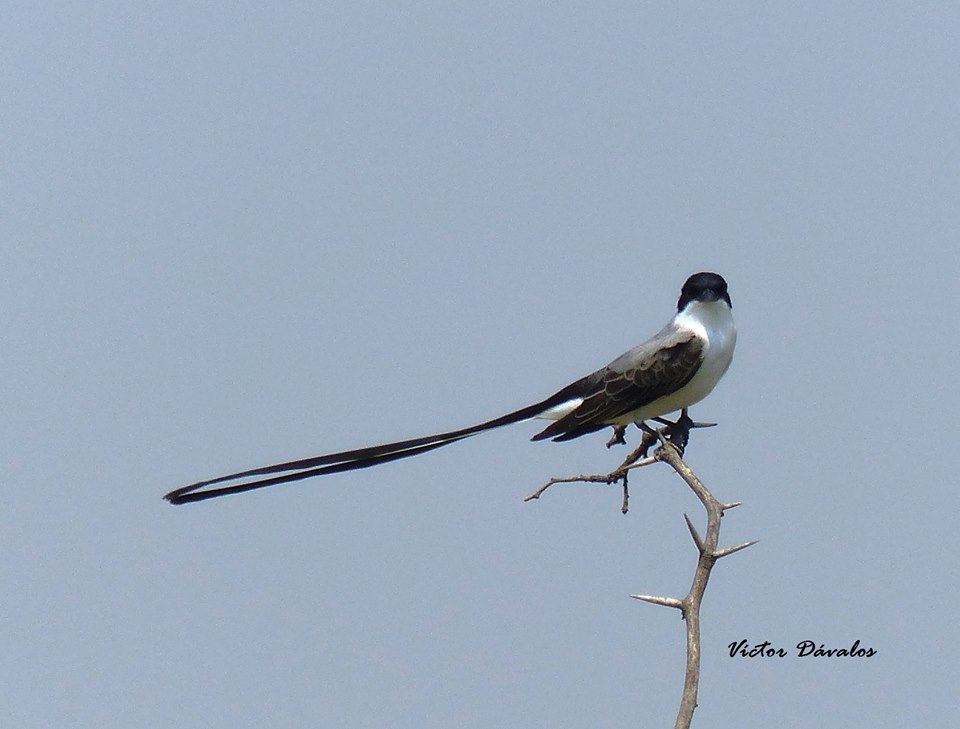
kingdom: Animalia
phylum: Chordata
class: Aves
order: Passeriformes
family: Tyrannidae
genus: Tyrannus
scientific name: Tyrannus savana
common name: Fork-tailed flycatcher
